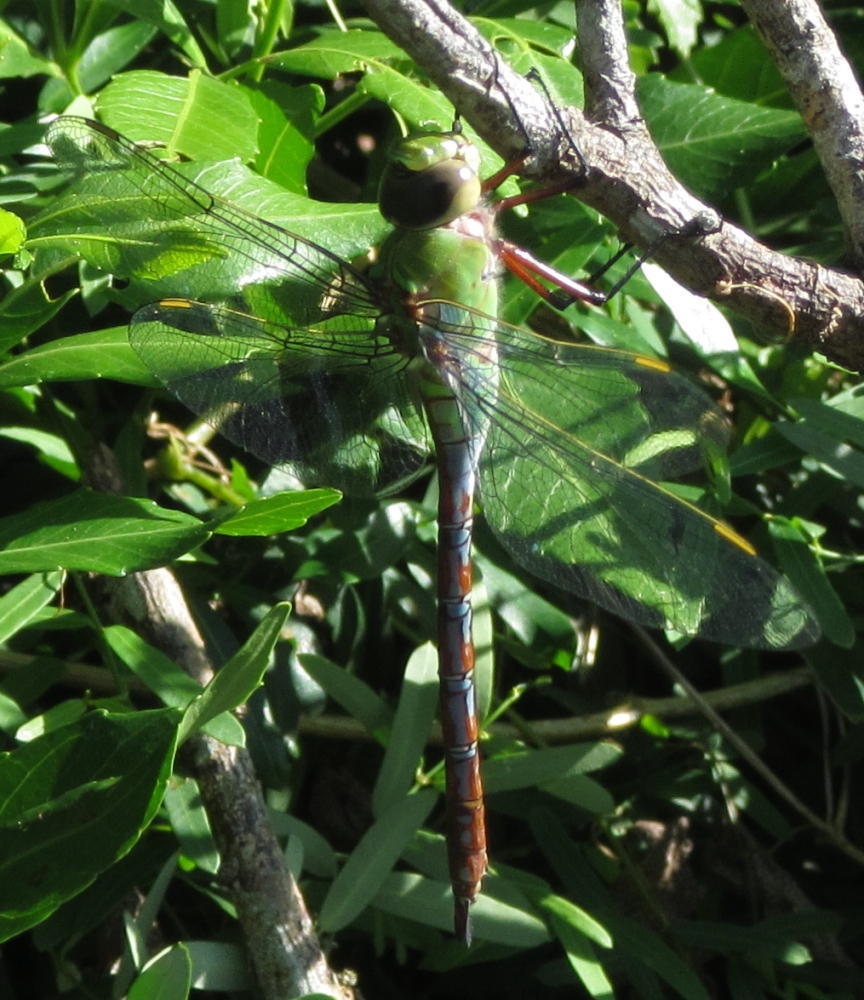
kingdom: Animalia
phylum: Arthropoda
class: Insecta
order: Odonata
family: Aeshnidae
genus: Anax
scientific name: Anax imperator
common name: Emperor dragonfly
